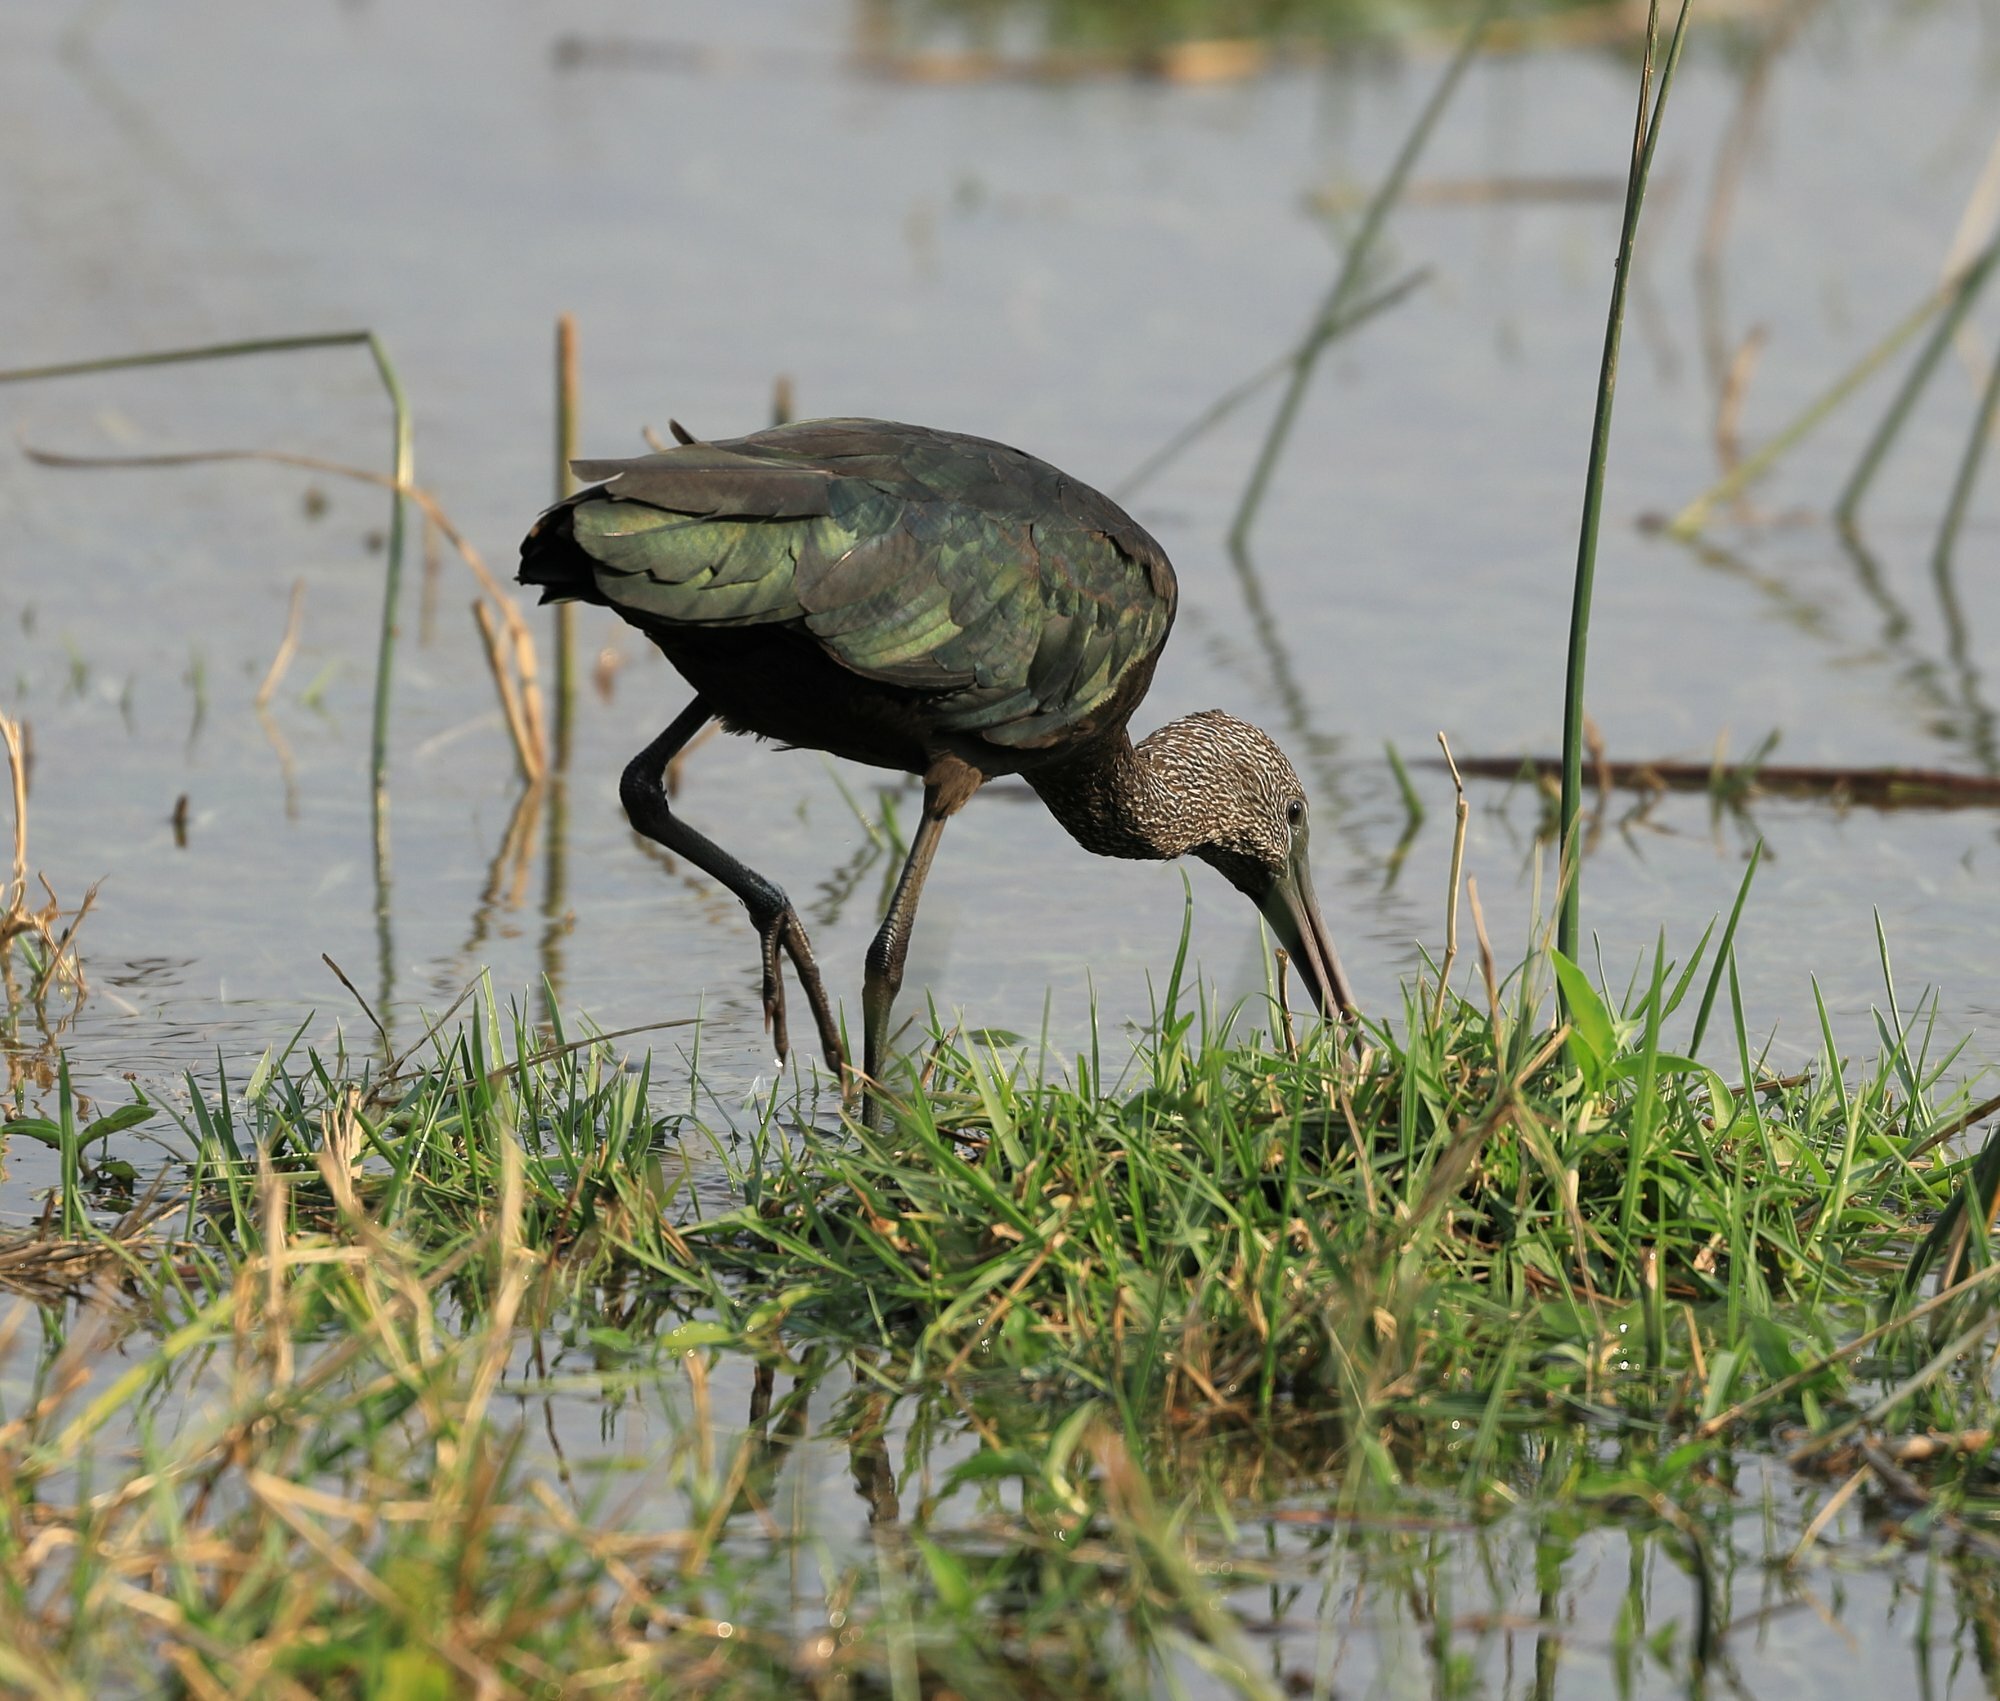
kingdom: Animalia
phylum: Chordata
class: Aves
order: Pelecaniformes
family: Threskiornithidae
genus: Plegadis
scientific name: Plegadis falcinellus
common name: Glossy ibis
